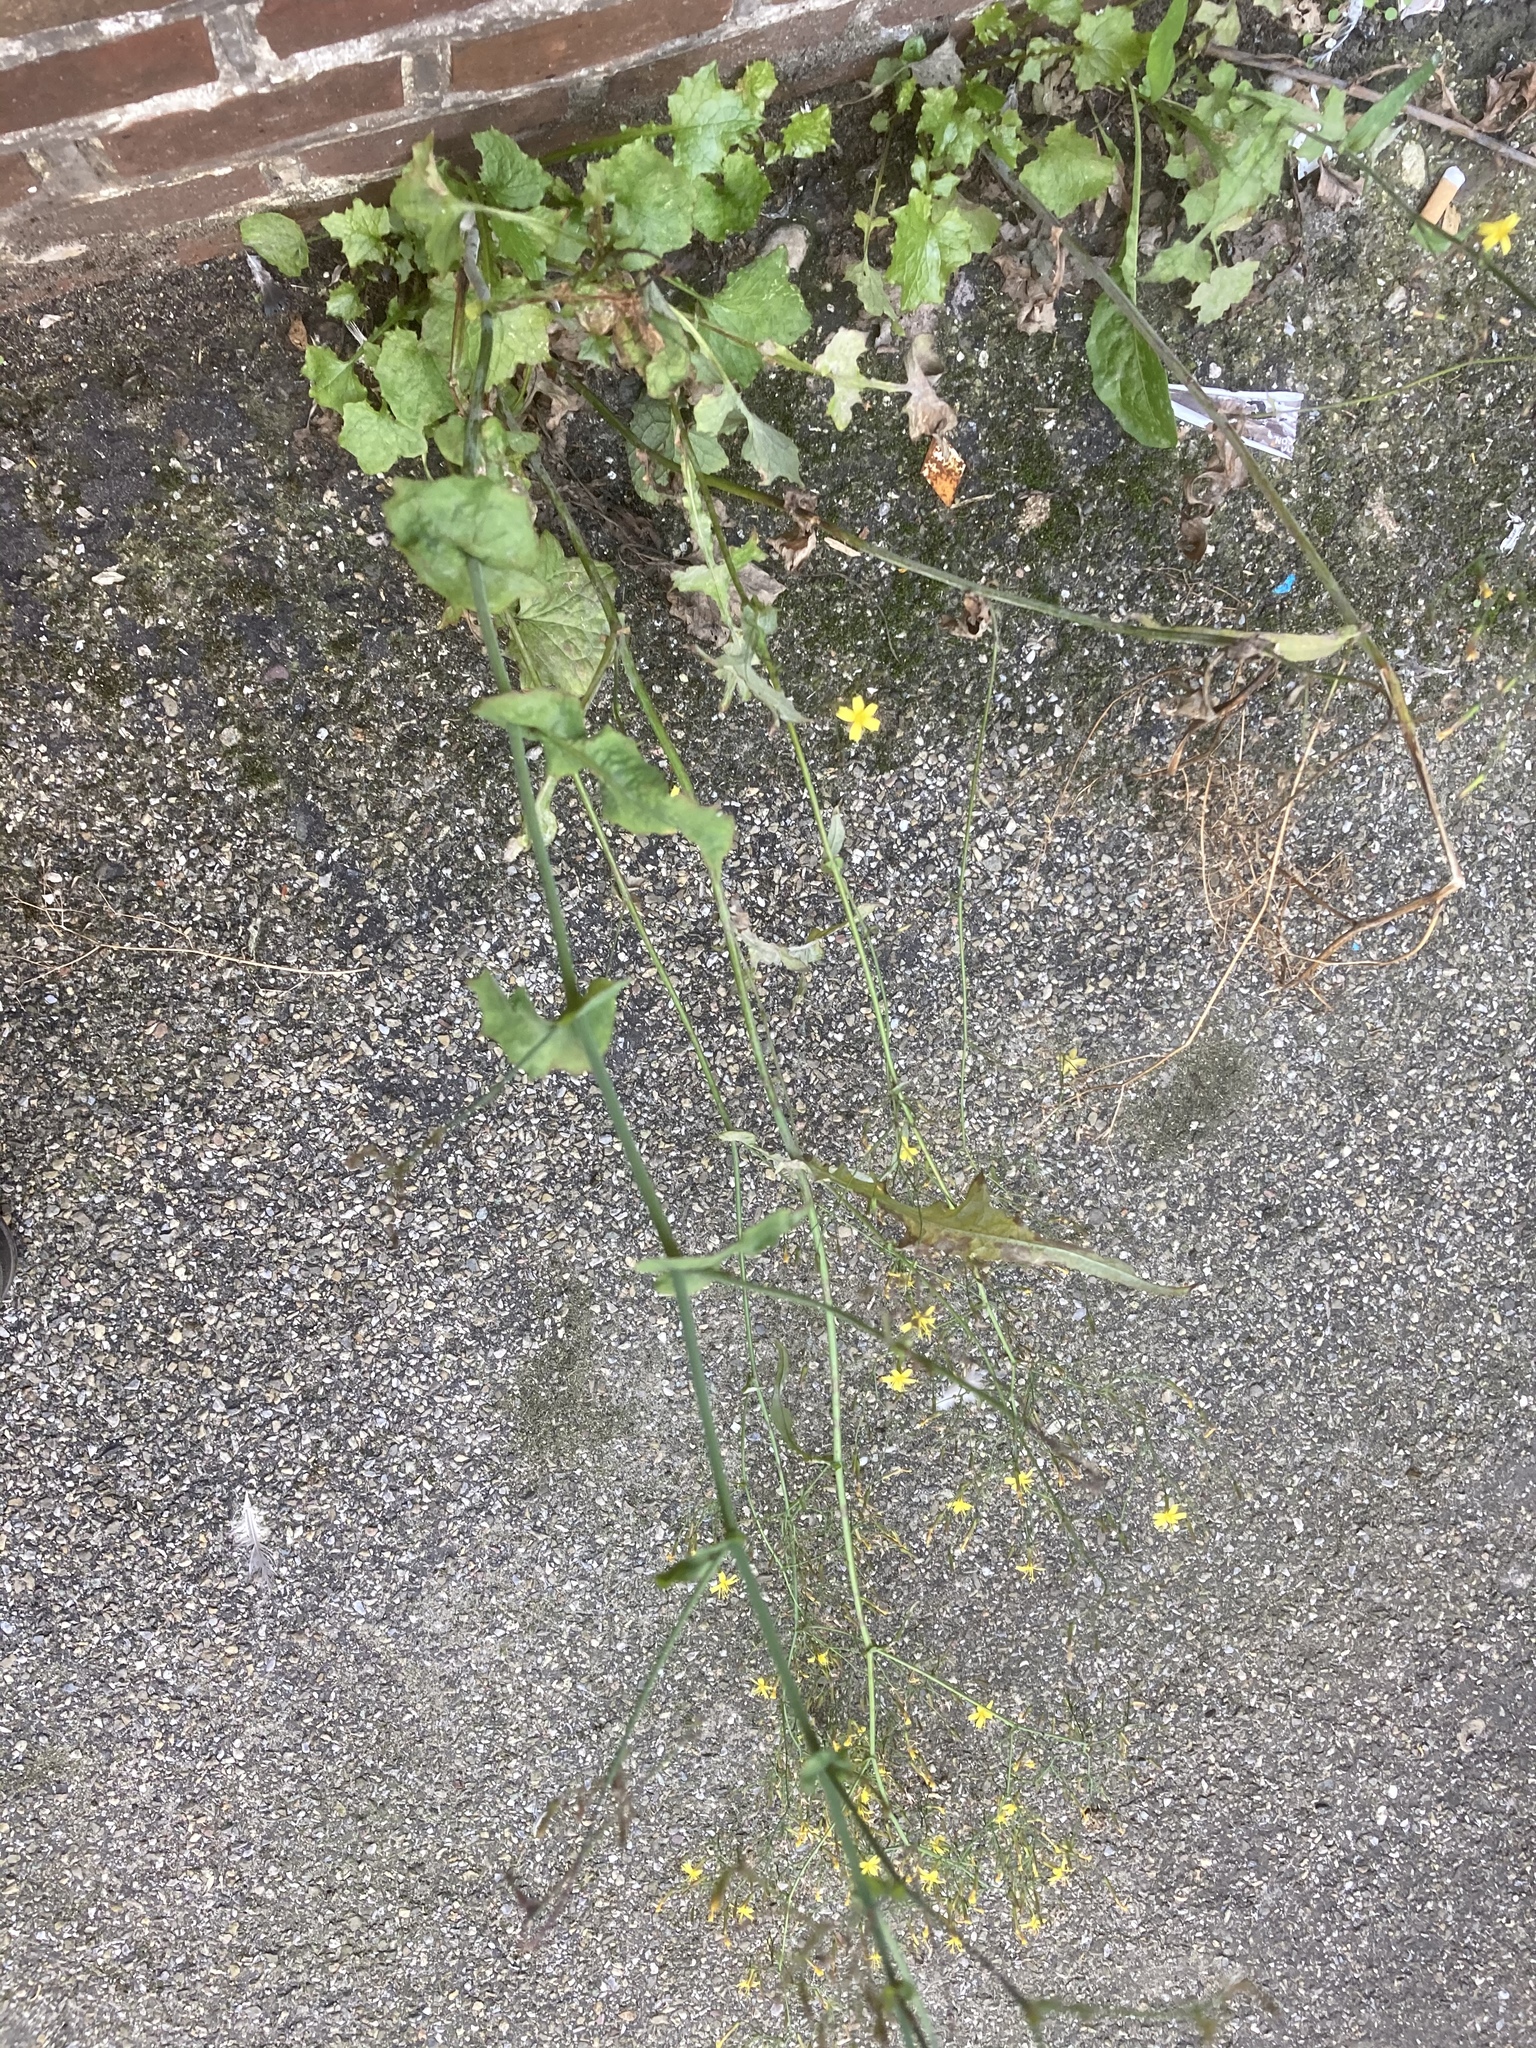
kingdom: Plantae
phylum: Tracheophyta
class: Magnoliopsida
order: Asterales
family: Asteraceae
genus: Mycelis
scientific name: Mycelis muralis
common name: Wall lettuce
